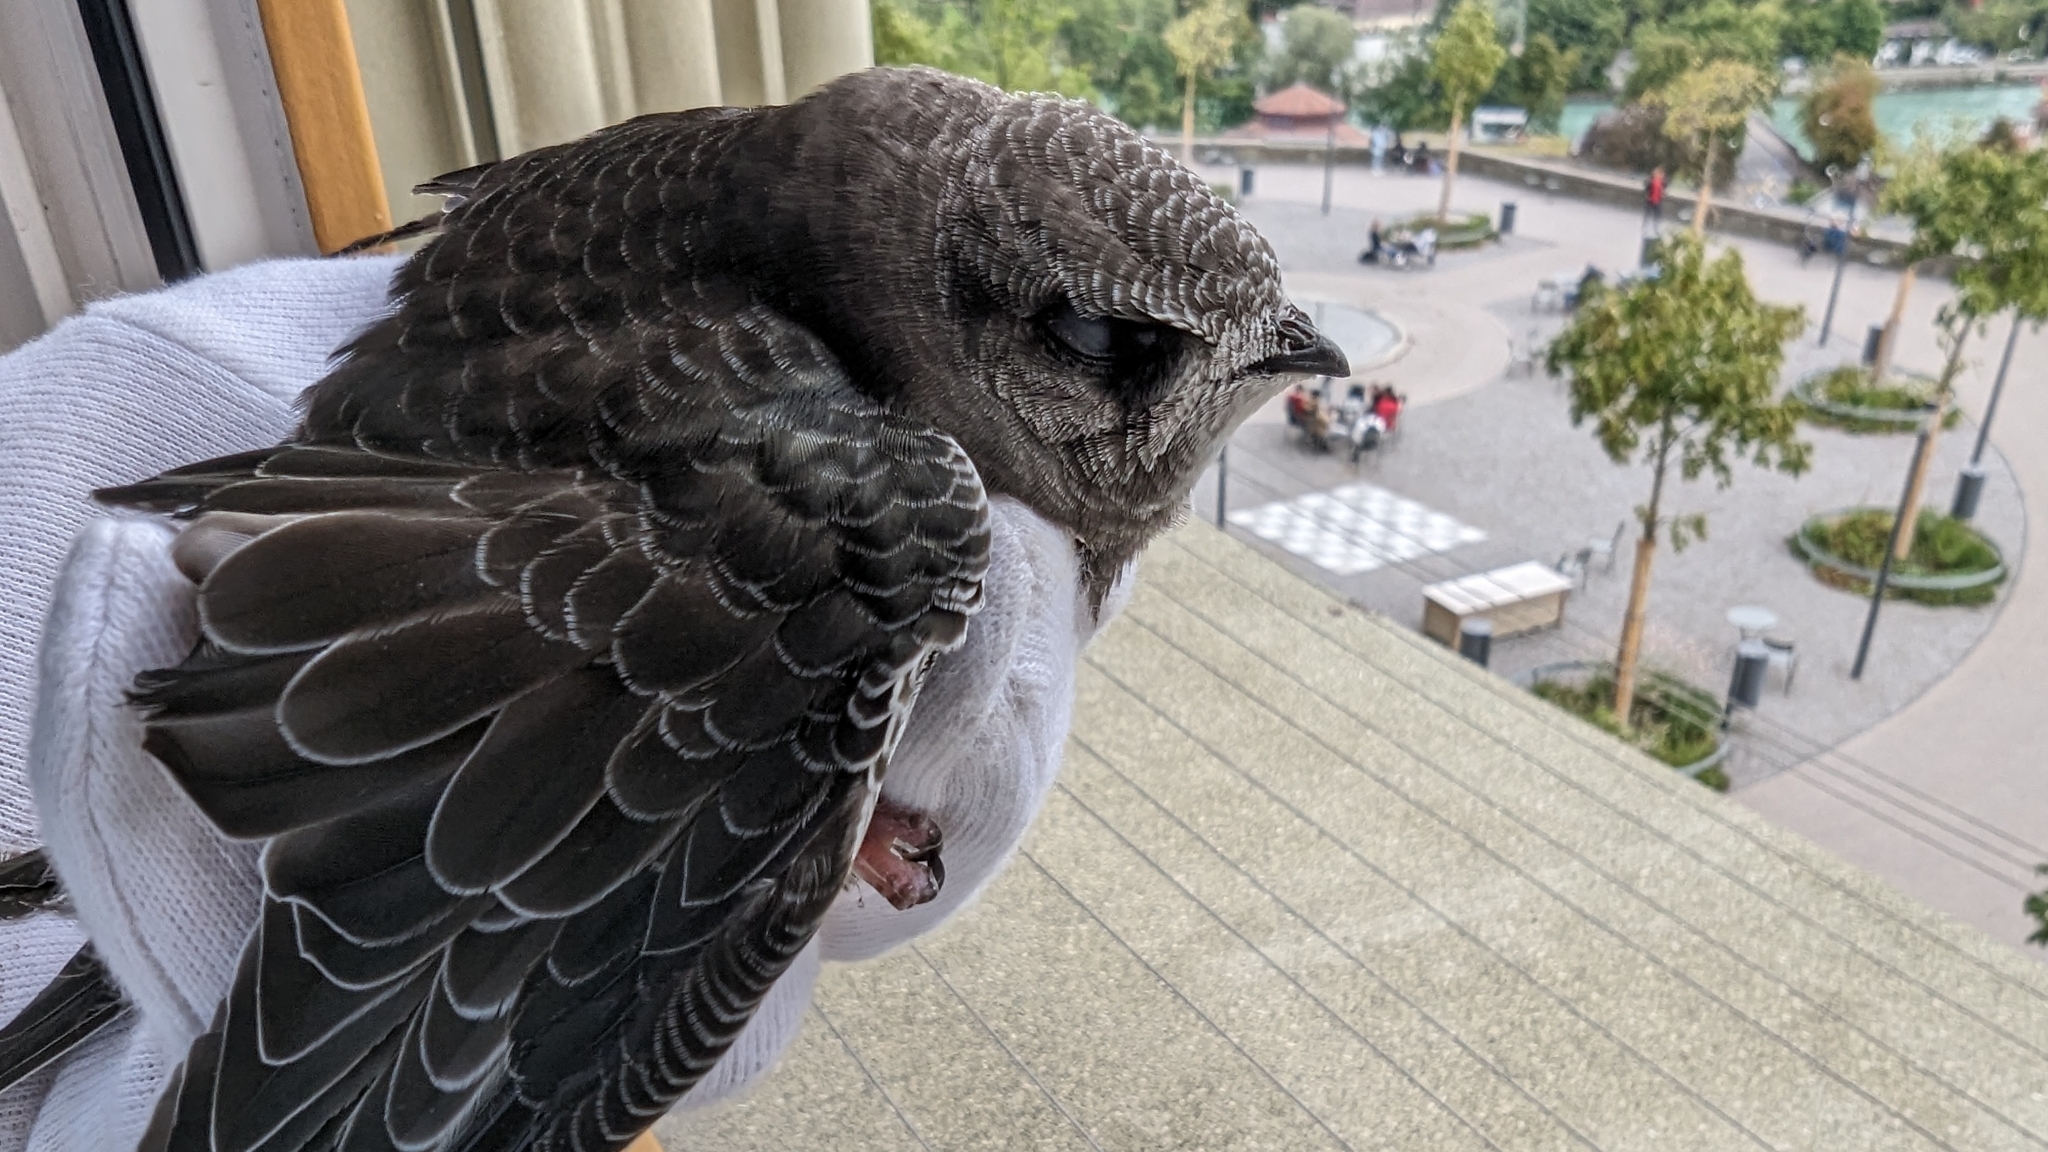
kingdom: Animalia
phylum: Chordata
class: Aves
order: Apodiformes
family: Apodidae
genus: Apus
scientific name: Apus apus
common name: Common swift
